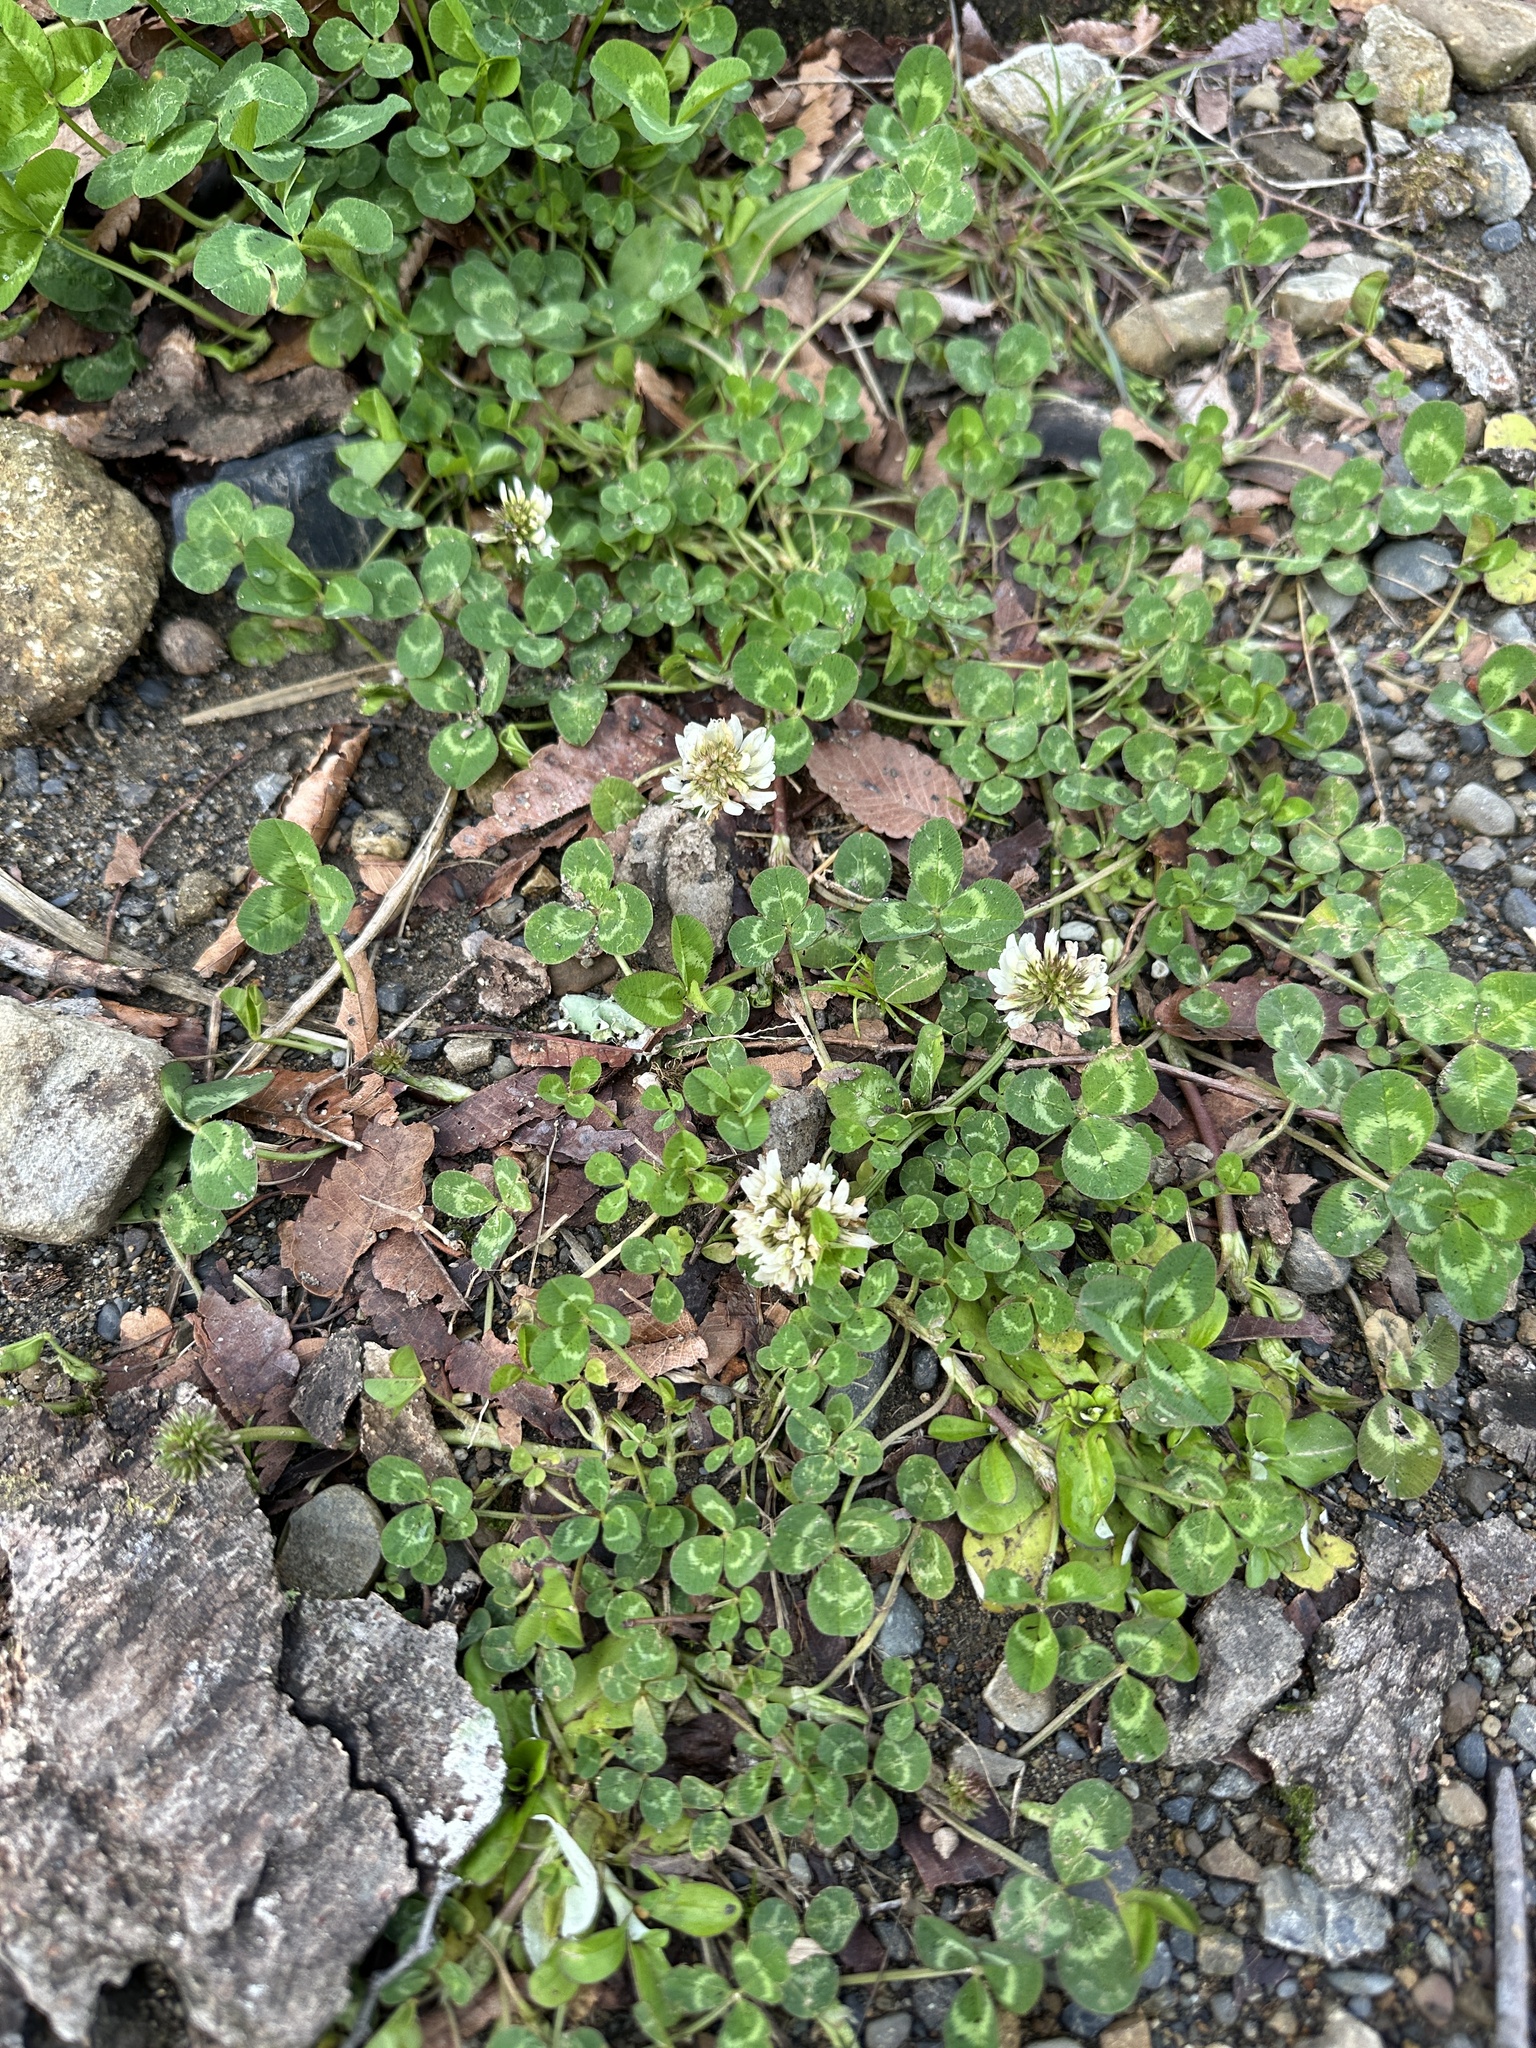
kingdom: Plantae
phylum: Tracheophyta
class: Magnoliopsida
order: Fabales
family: Fabaceae
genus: Trifolium
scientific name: Trifolium repens
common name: White clover
